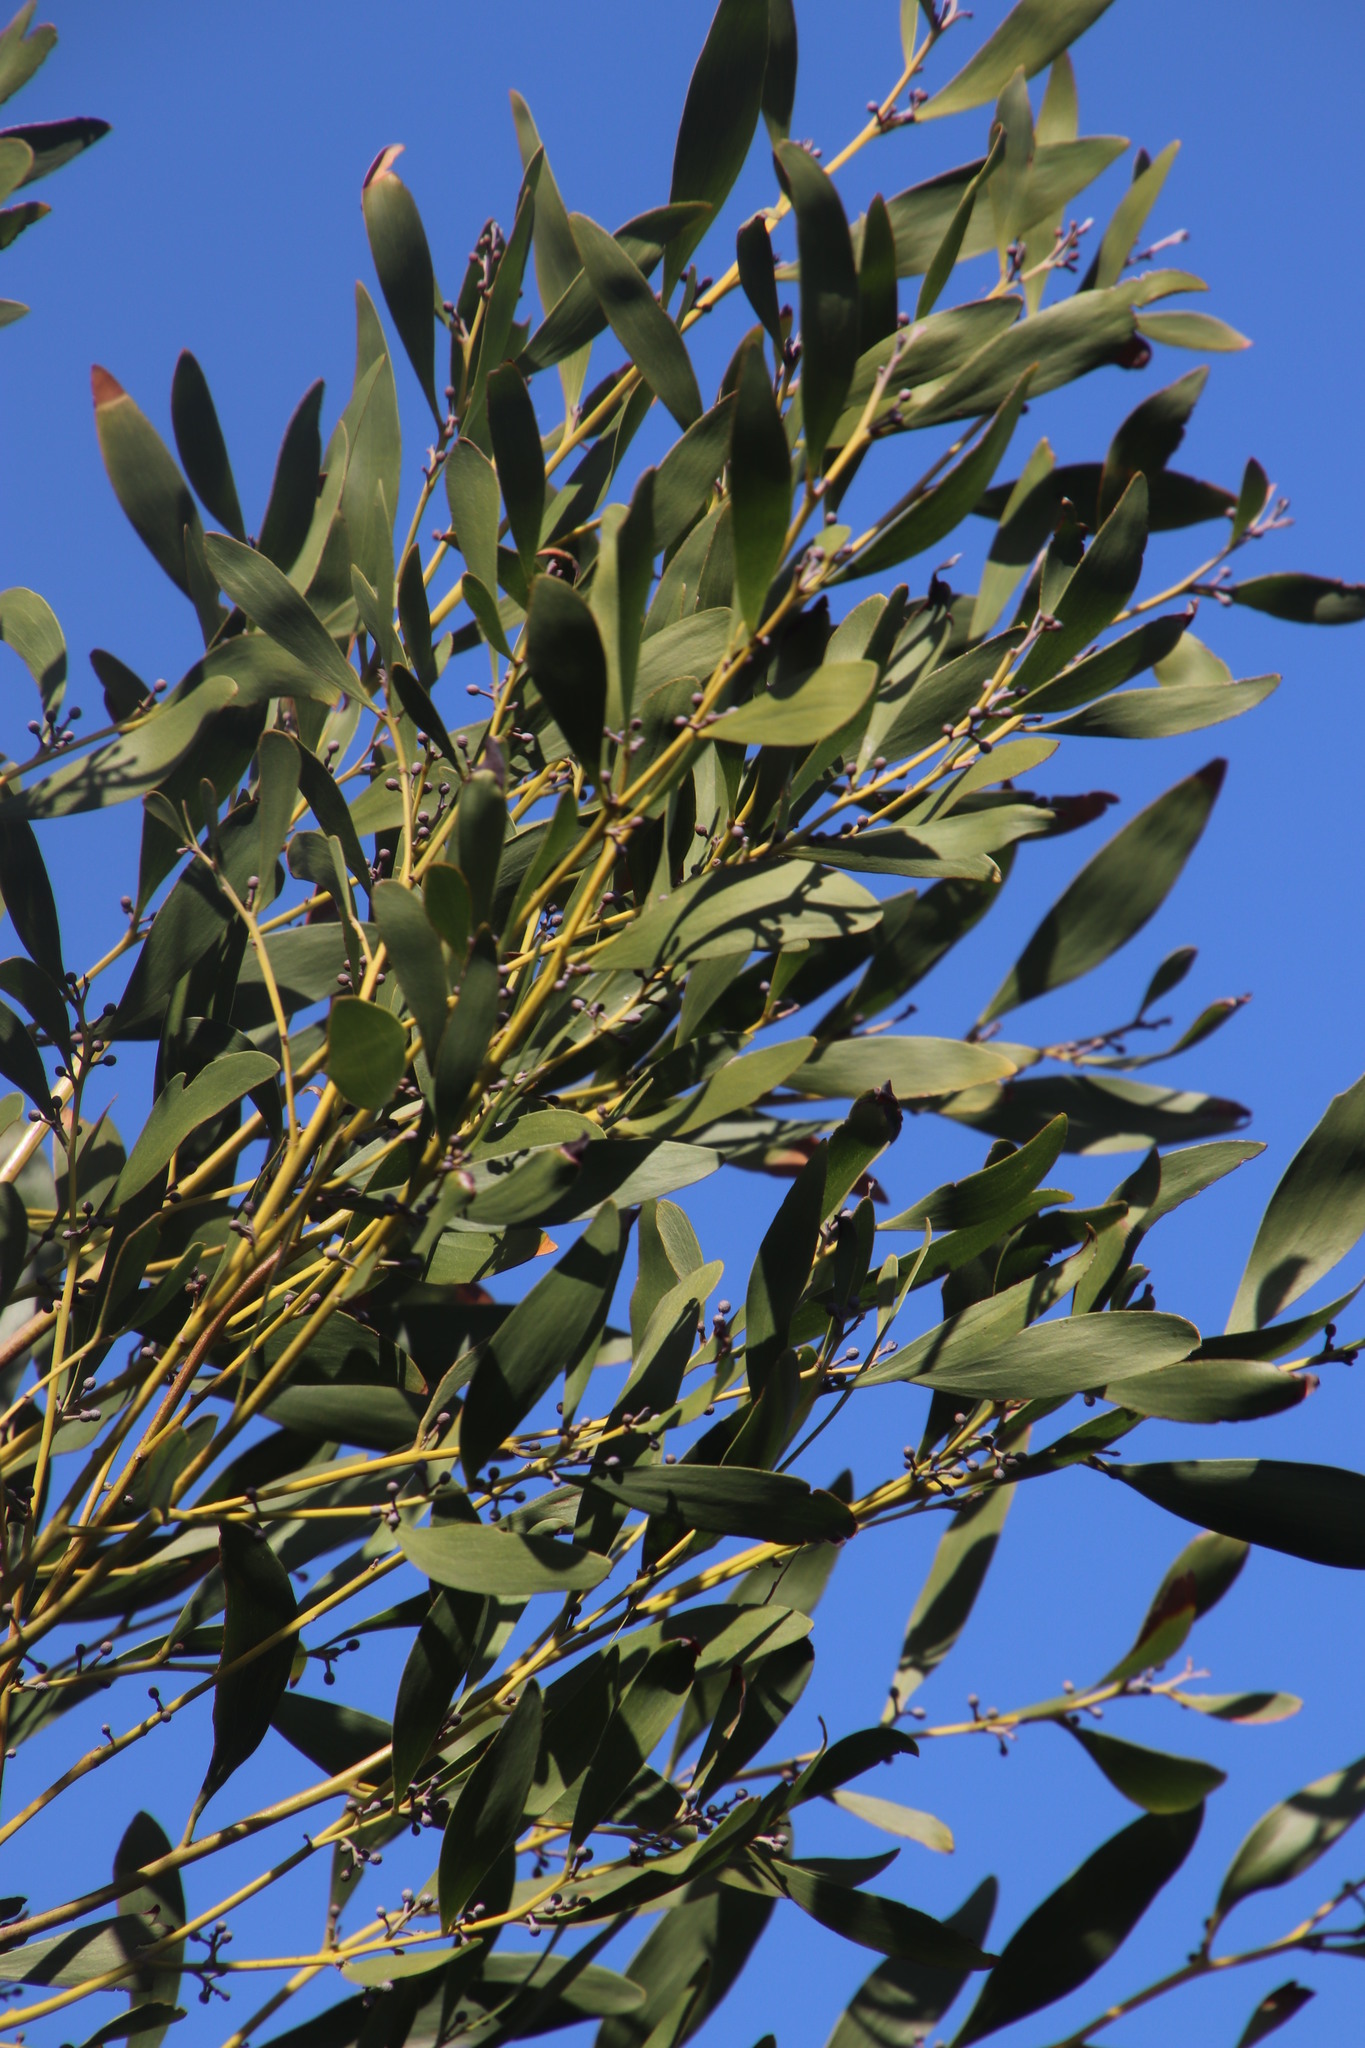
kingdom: Plantae
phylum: Tracheophyta
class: Magnoliopsida
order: Fabales
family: Fabaceae
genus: Acacia
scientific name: Acacia melanoxylon
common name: Blackwood
